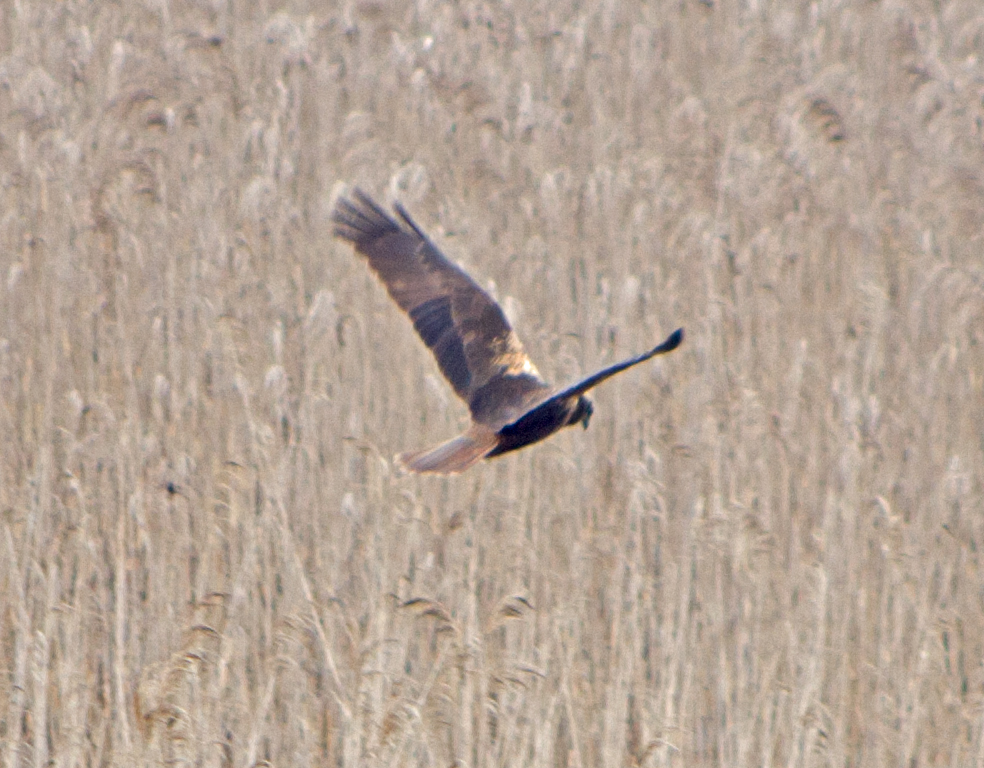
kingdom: Animalia
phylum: Chordata
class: Aves
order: Accipitriformes
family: Accipitridae
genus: Circus
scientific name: Circus aeruginosus
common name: Western marsh harrier
